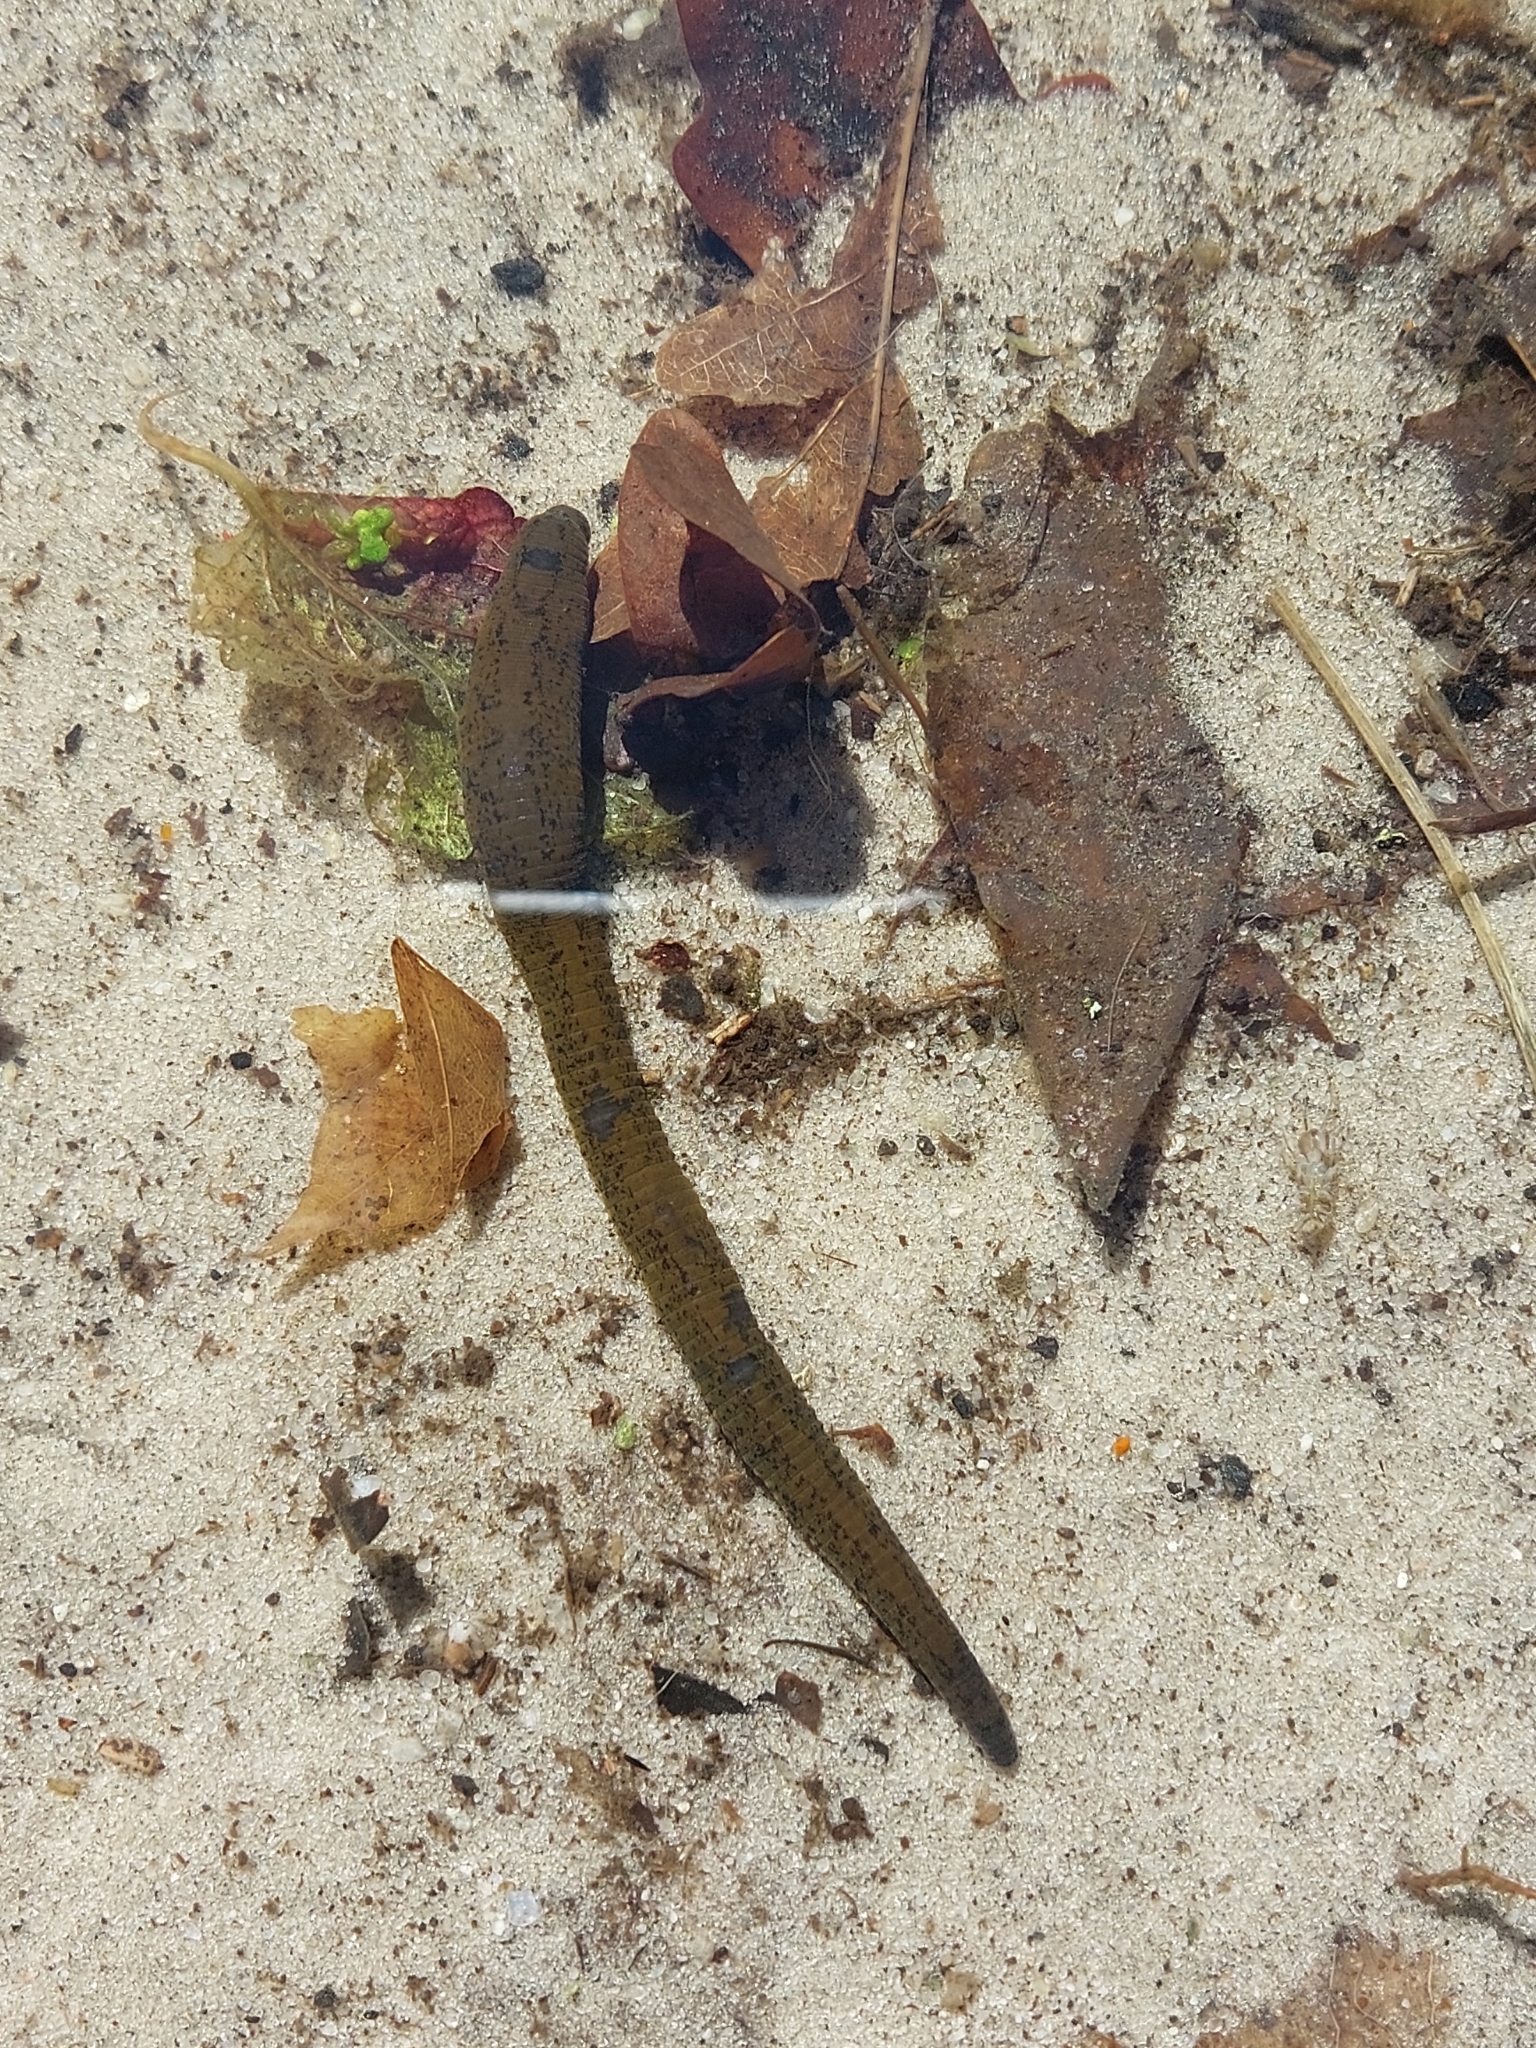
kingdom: Animalia
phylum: Annelida
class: Clitellata
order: Arhynchobdellida
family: Haemopidae
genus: Haemopis
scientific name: Haemopis sanguisuga
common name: Horse leech
